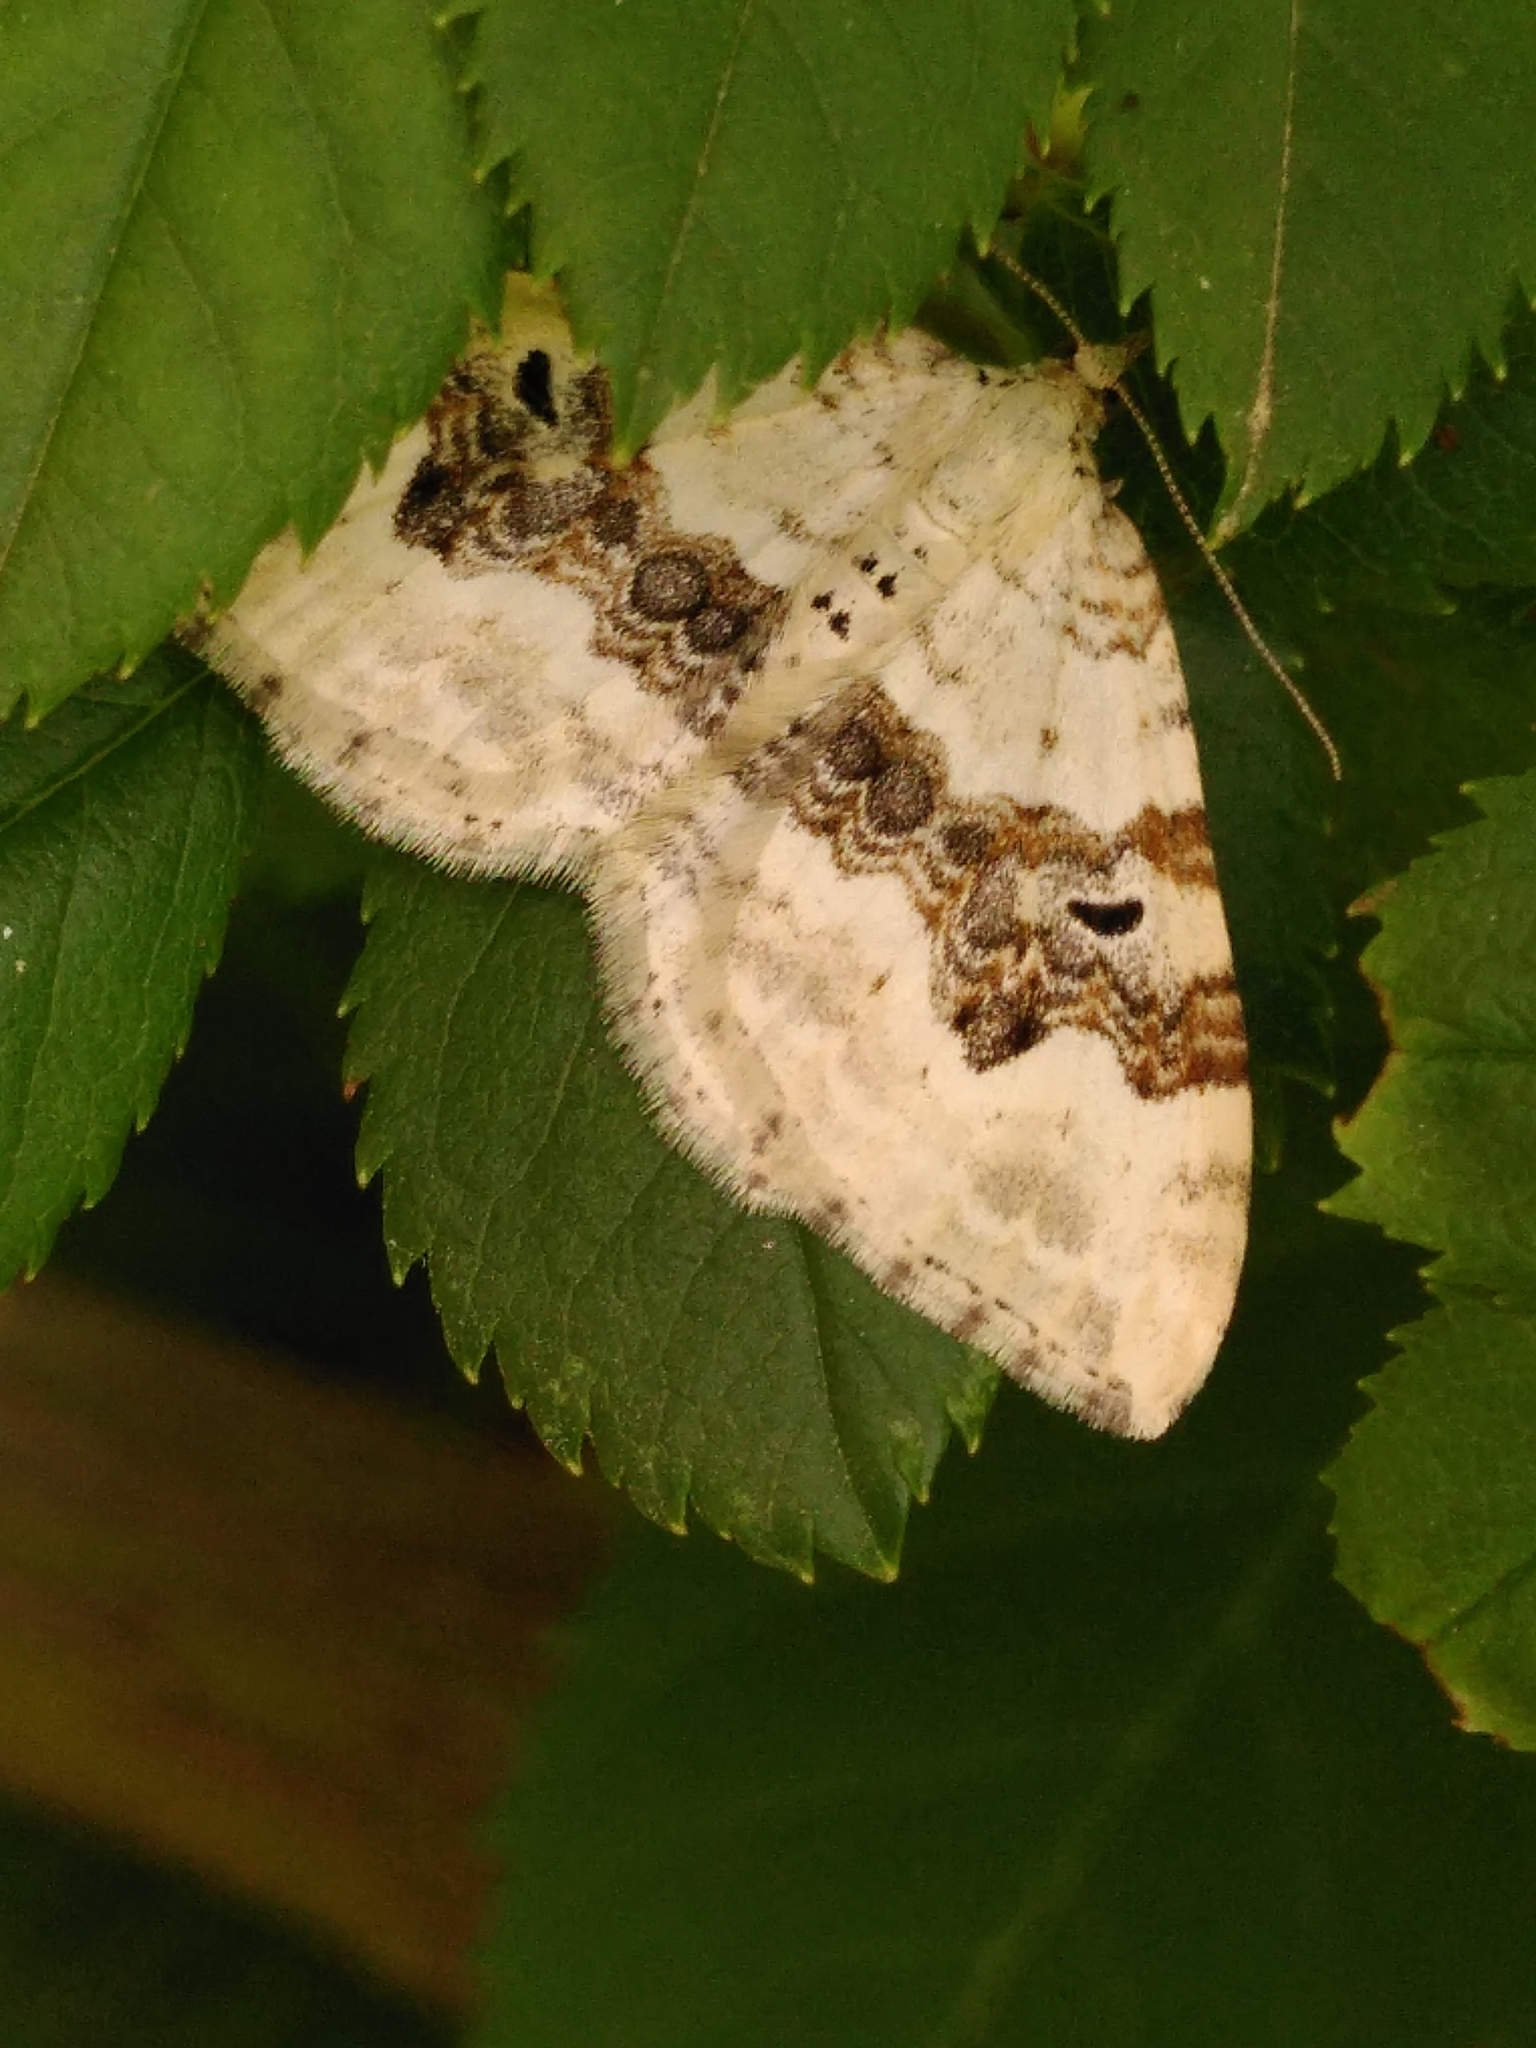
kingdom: Animalia
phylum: Arthropoda
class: Insecta
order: Lepidoptera
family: Geometridae
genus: Xanthorhoe
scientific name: Xanthorhoe montanata
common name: Silver-ground carpet
